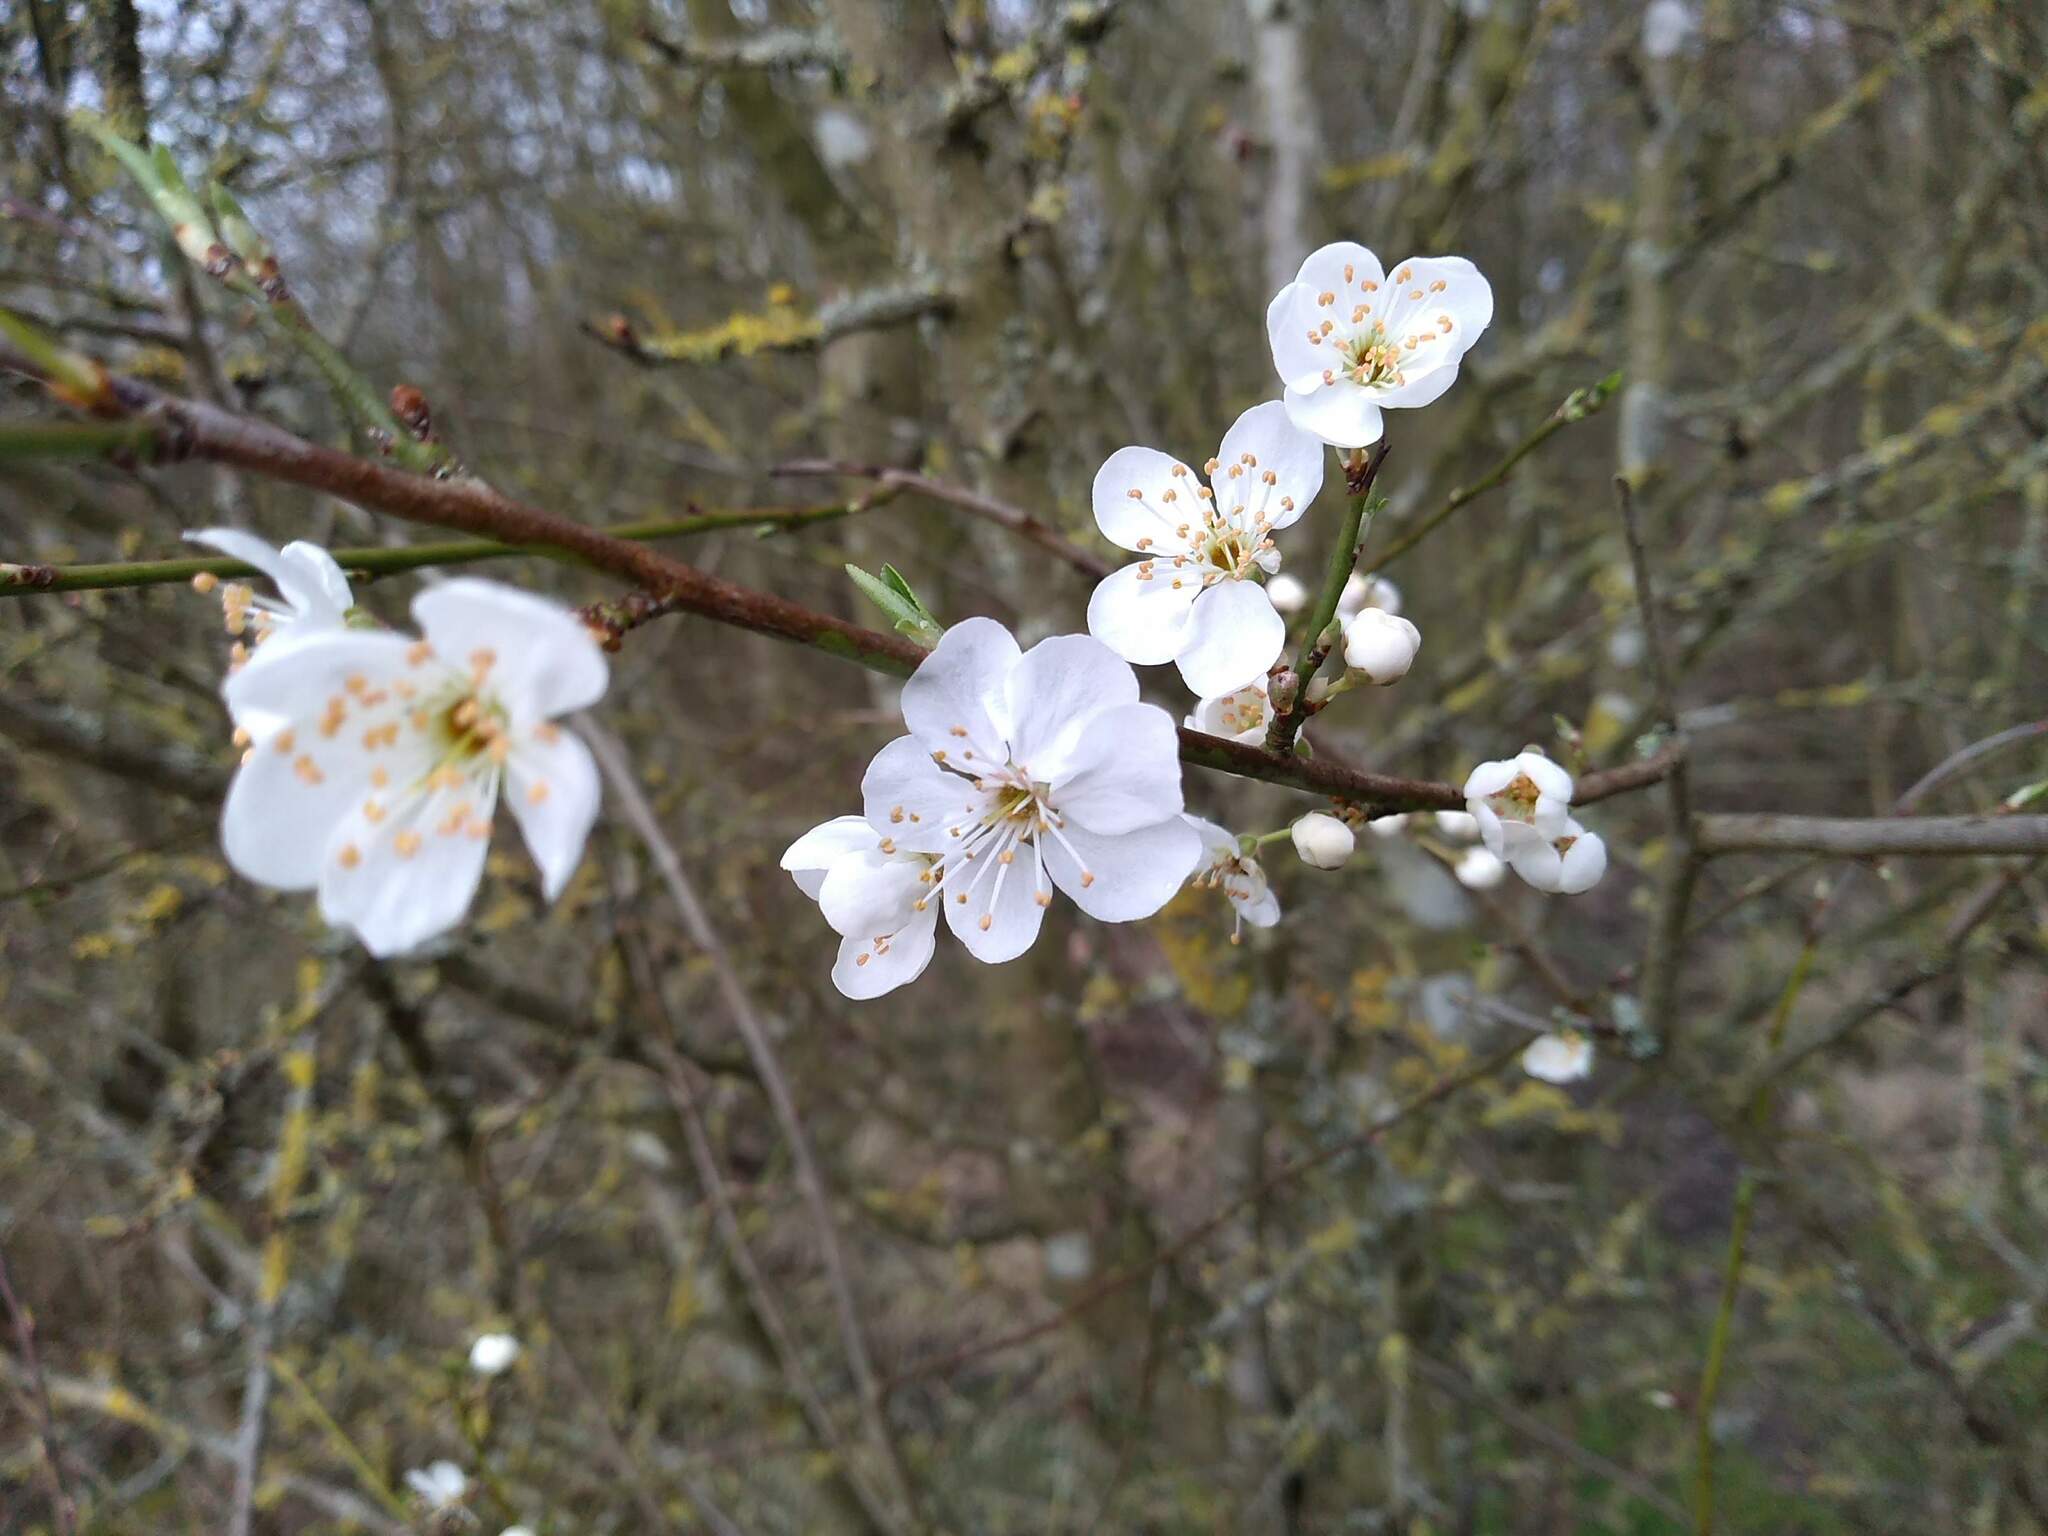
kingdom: Plantae
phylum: Tracheophyta
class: Magnoliopsida
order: Rosales
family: Rosaceae
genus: Prunus
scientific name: Prunus cerasifera
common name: Cherry plum
